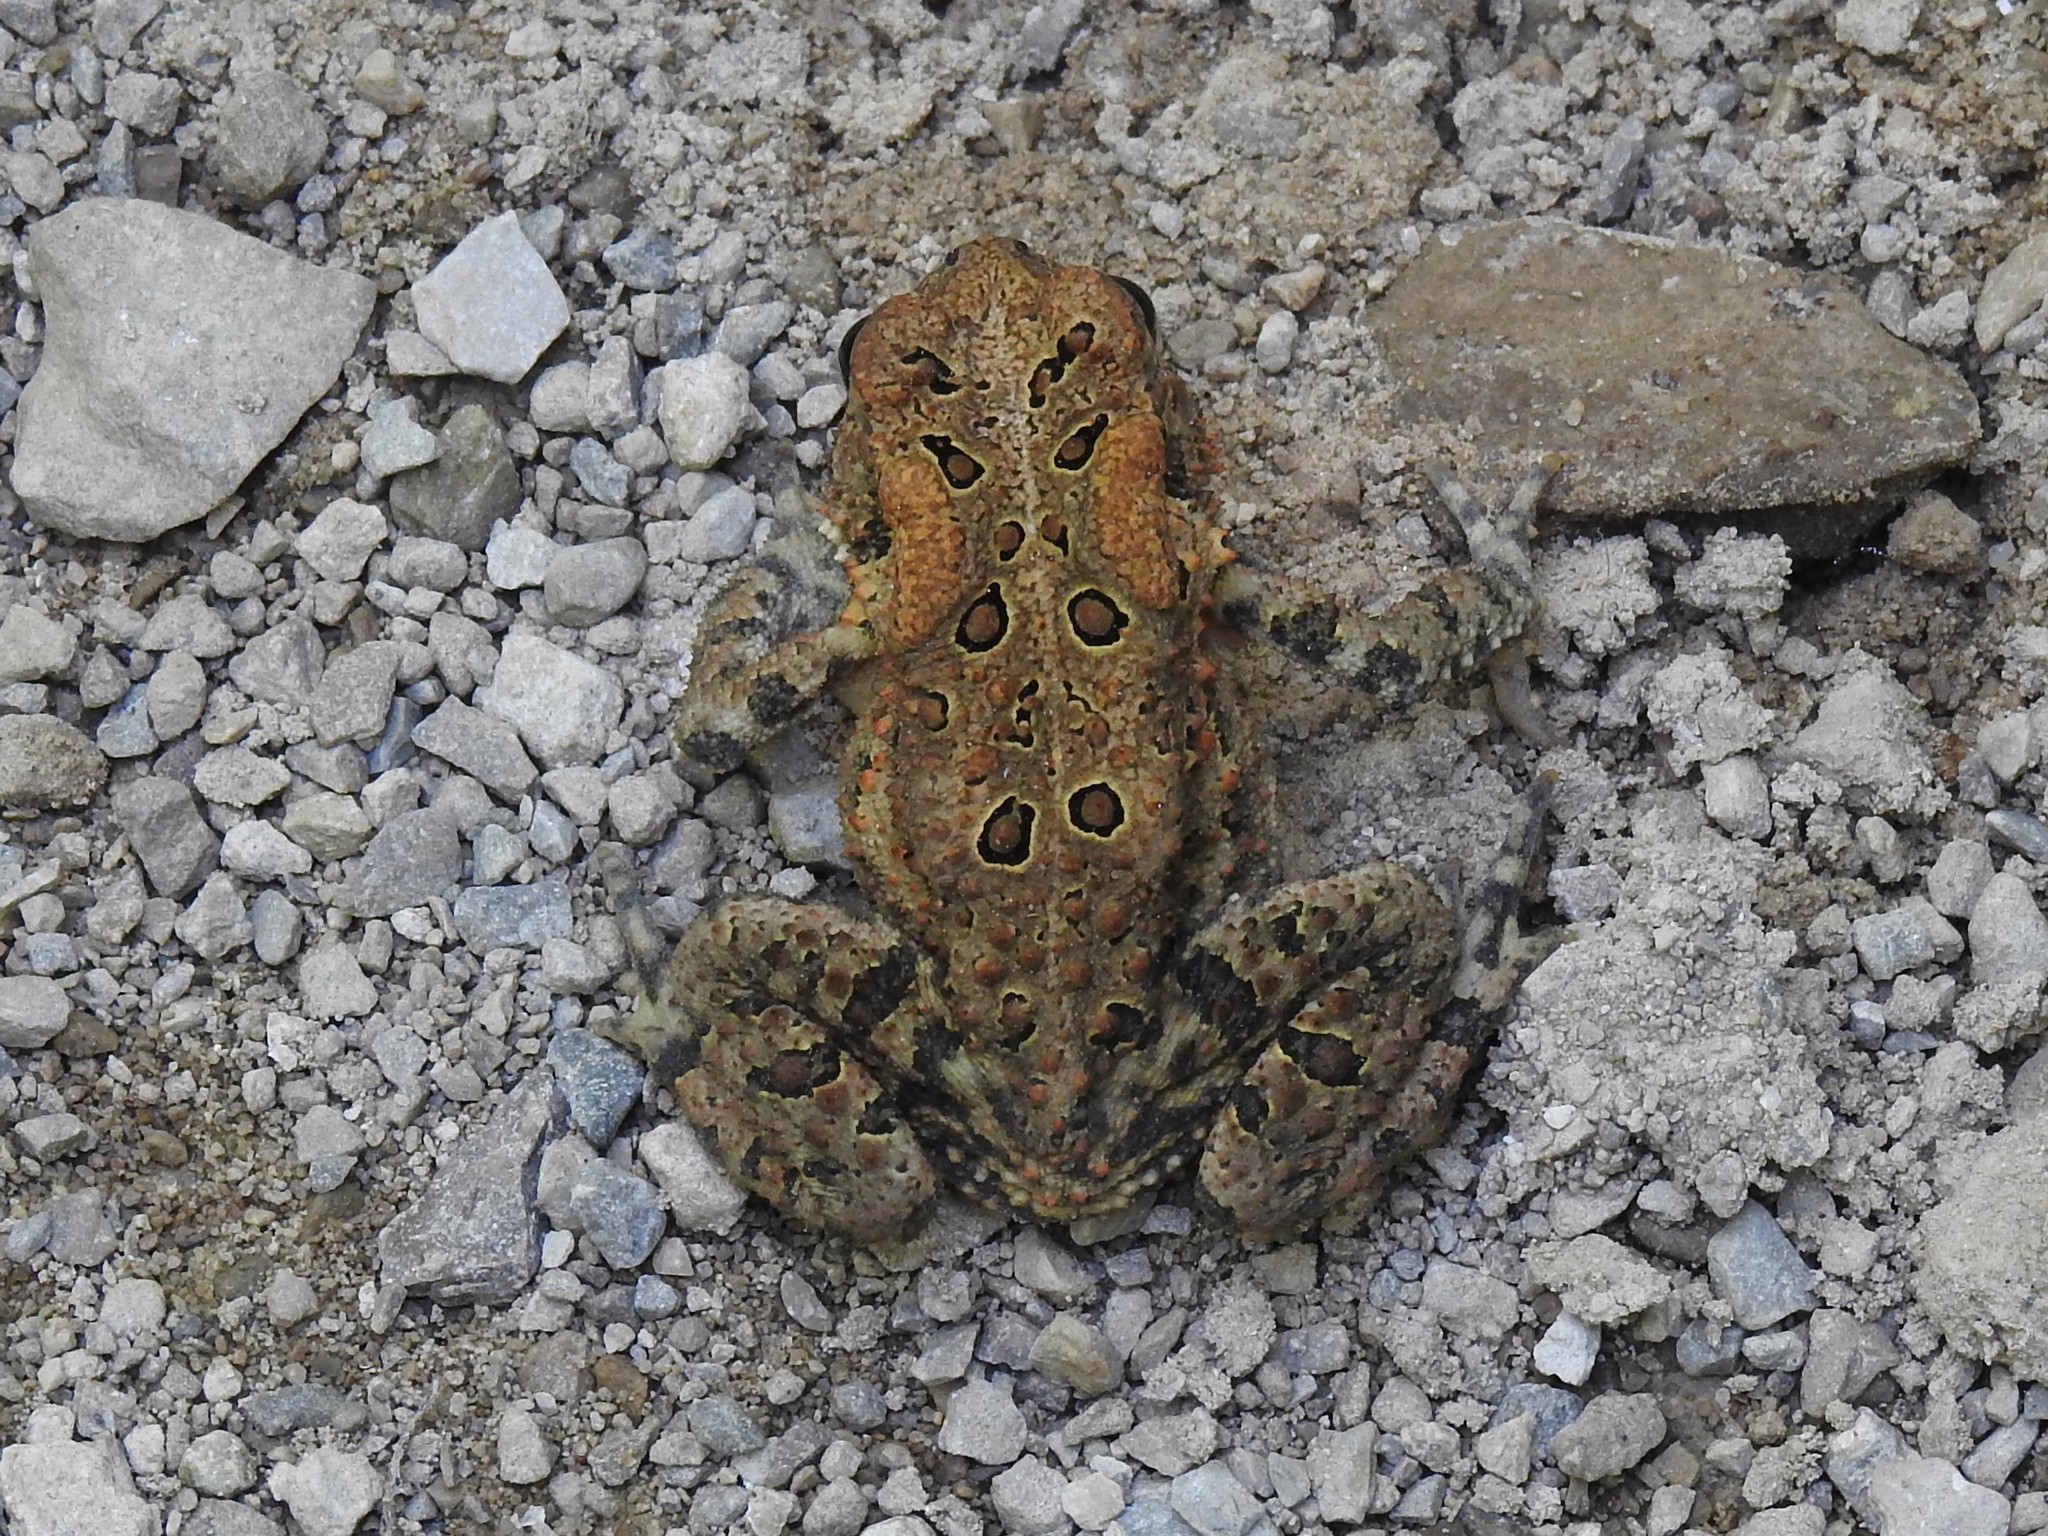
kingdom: Animalia
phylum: Chordata
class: Amphibia
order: Anura
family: Bufonidae
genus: Anaxyrus
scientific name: Anaxyrus americanus
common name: American toad
